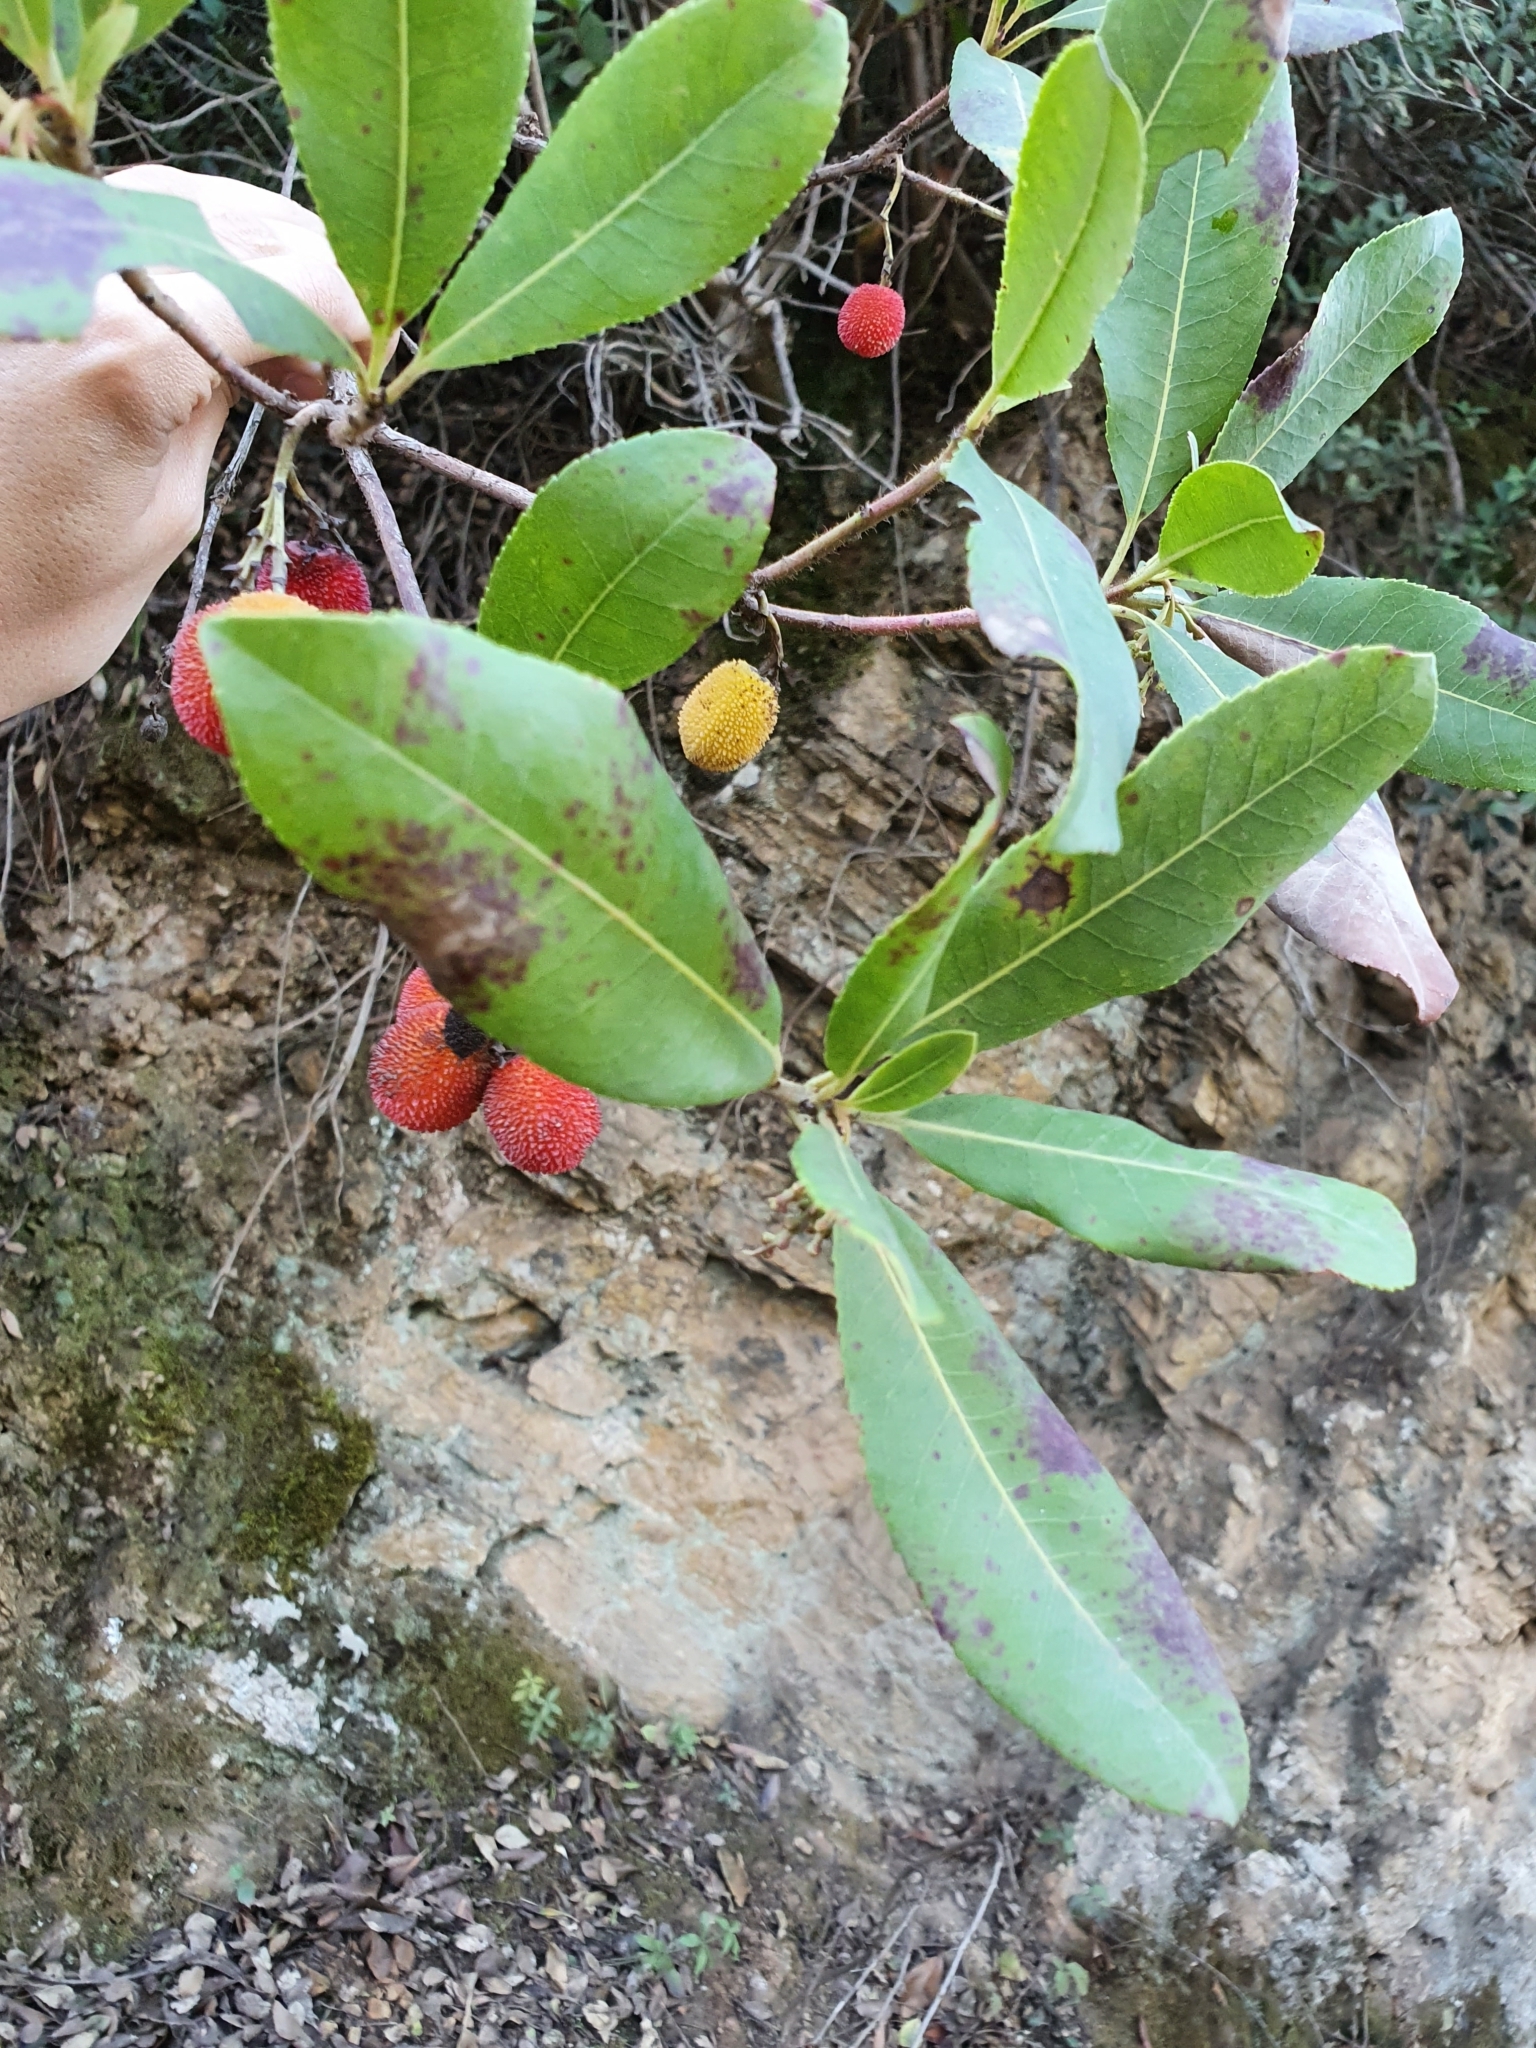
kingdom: Plantae
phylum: Tracheophyta
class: Magnoliopsida
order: Ericales
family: Ericaceae
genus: Arbutus
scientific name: Arbutus unedo
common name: Strawberry-tree
